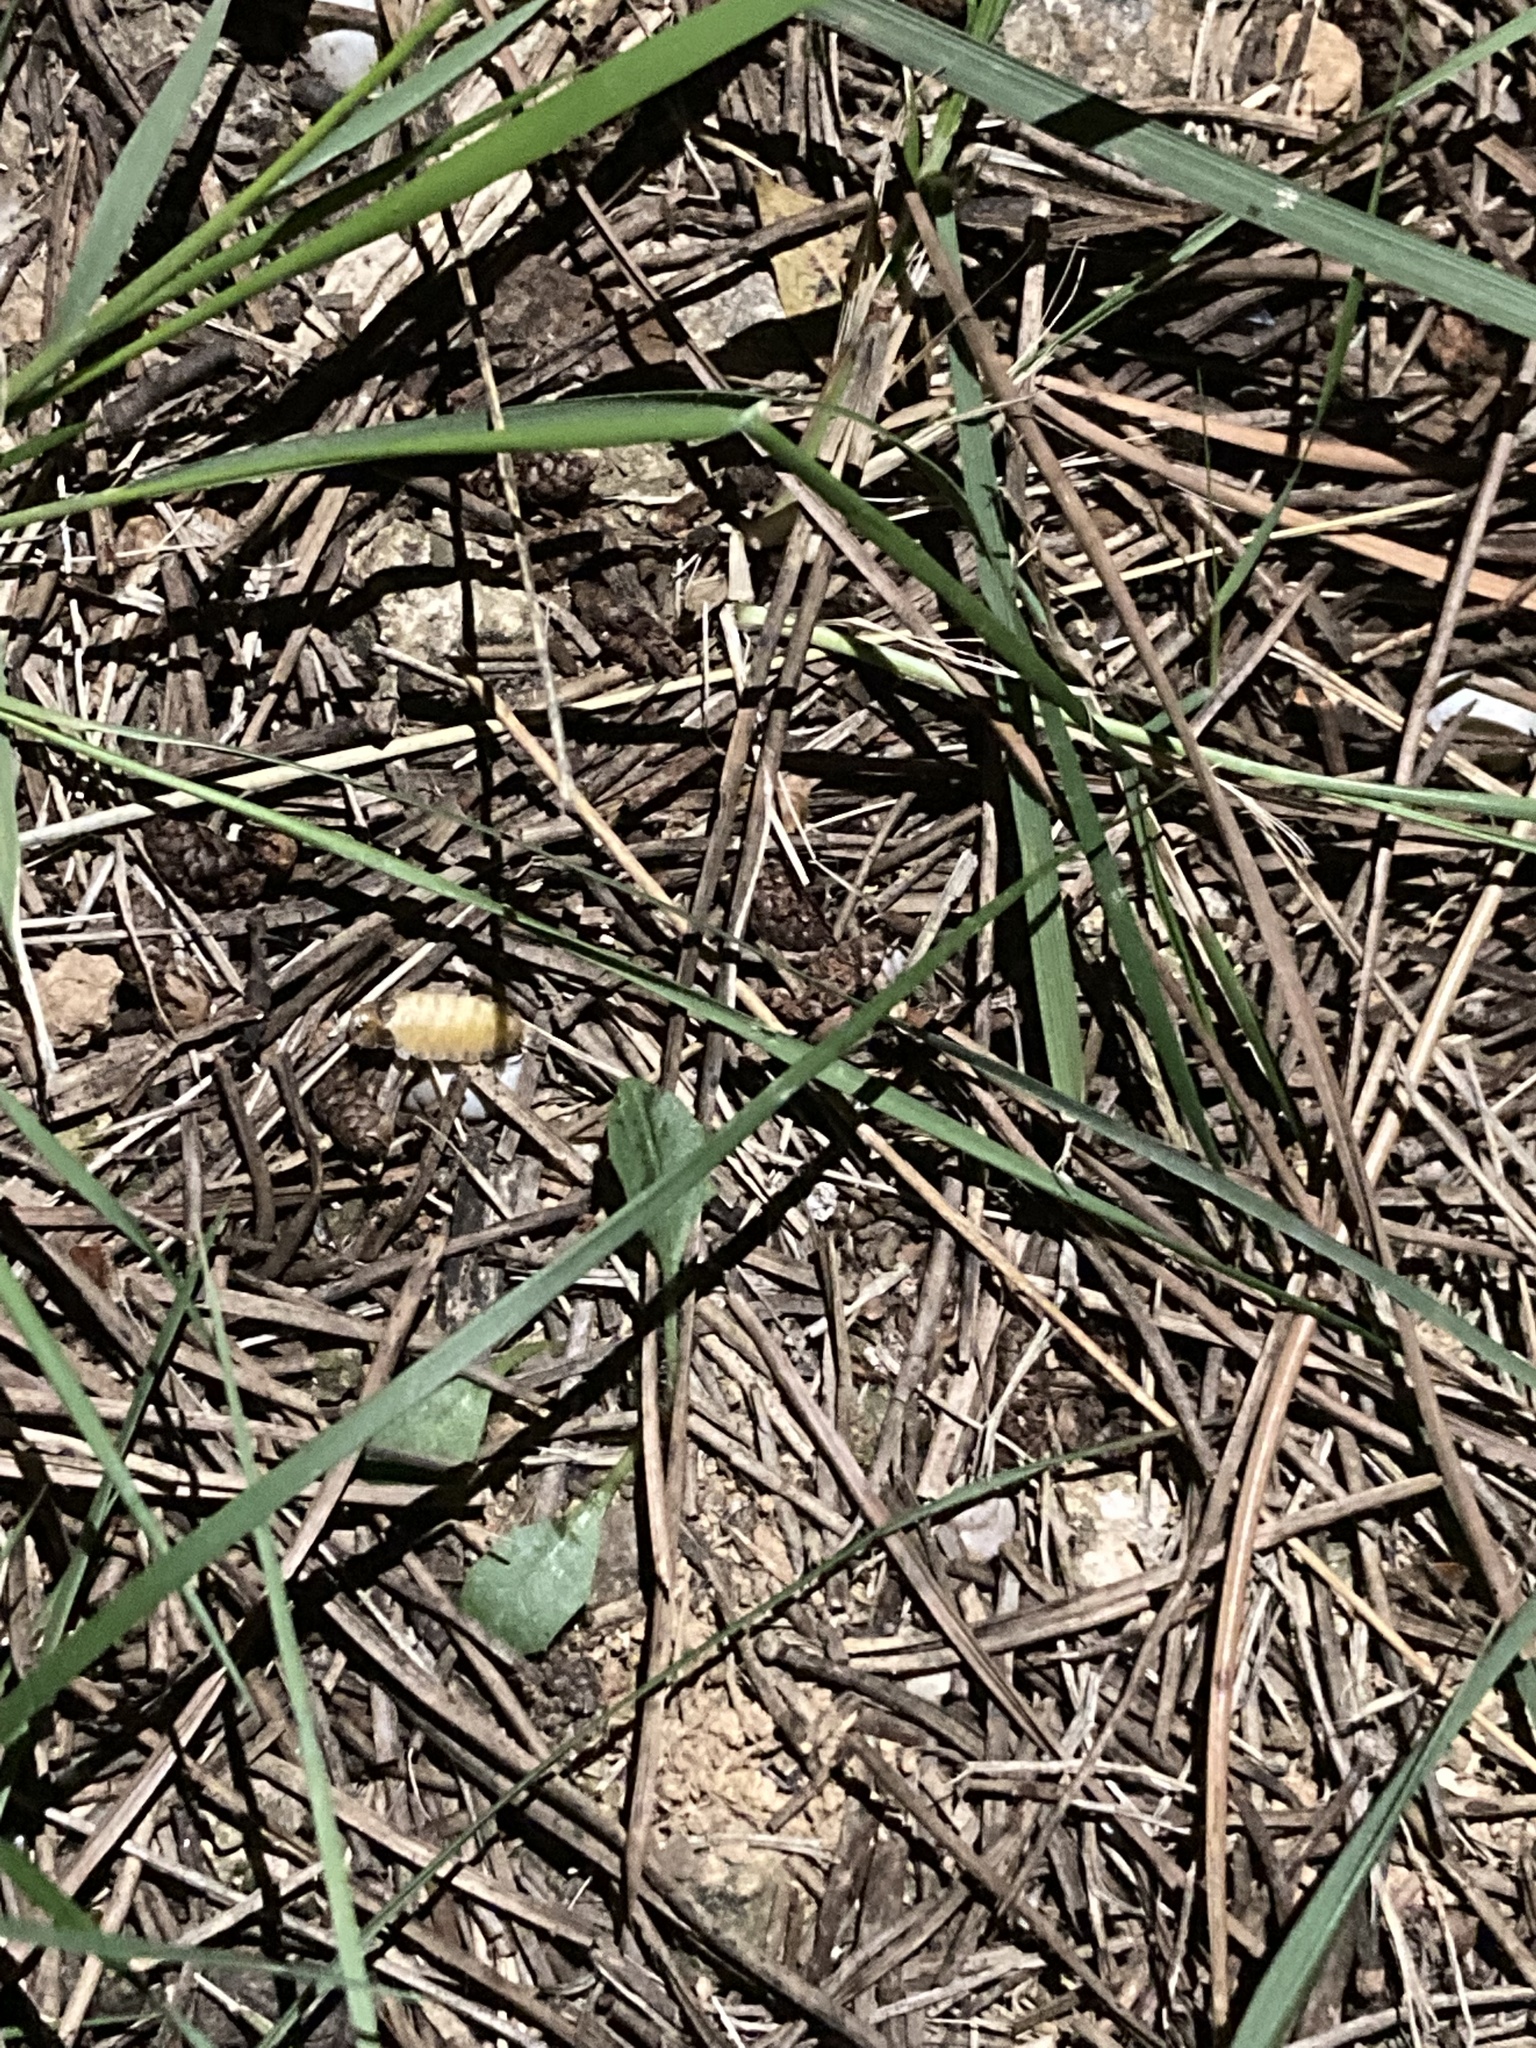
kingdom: Animalia
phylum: Arthropoda
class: Insecta
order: Coleoptera
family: Lampyridae
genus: Lamprohiza
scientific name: Lamprohiza mulsantii
